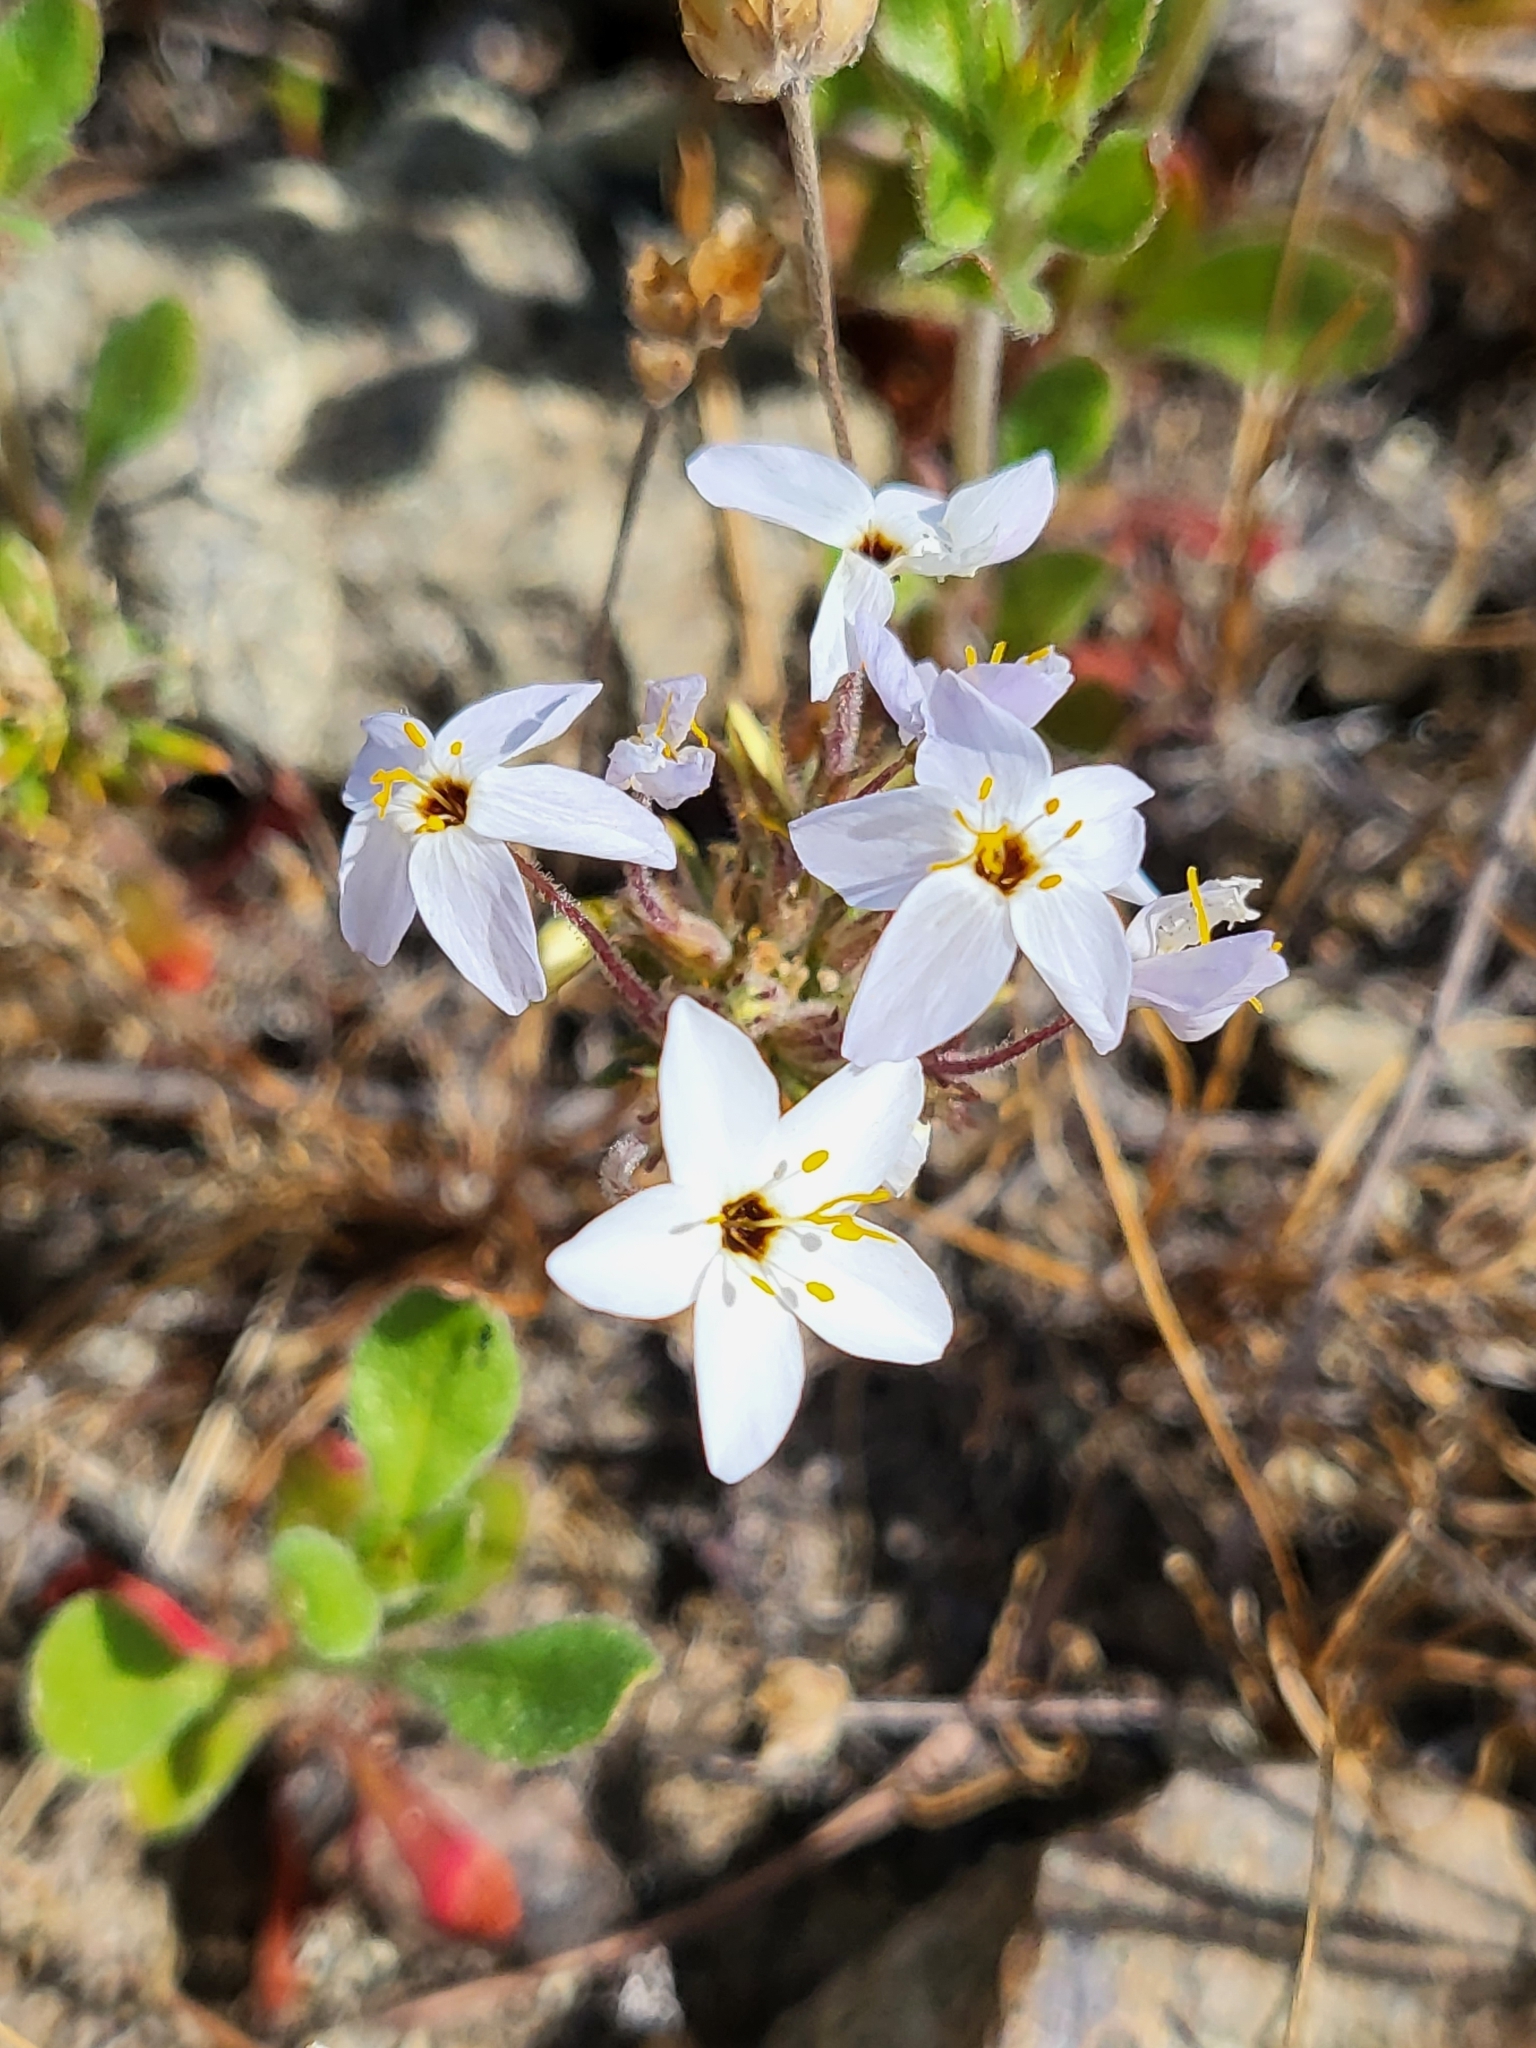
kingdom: Plantae
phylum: Tracheophyta
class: Magnoliopsida
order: Ericales
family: Polemoniaceae
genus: Leptosiphon
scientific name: Leptosiphon parviflorus
